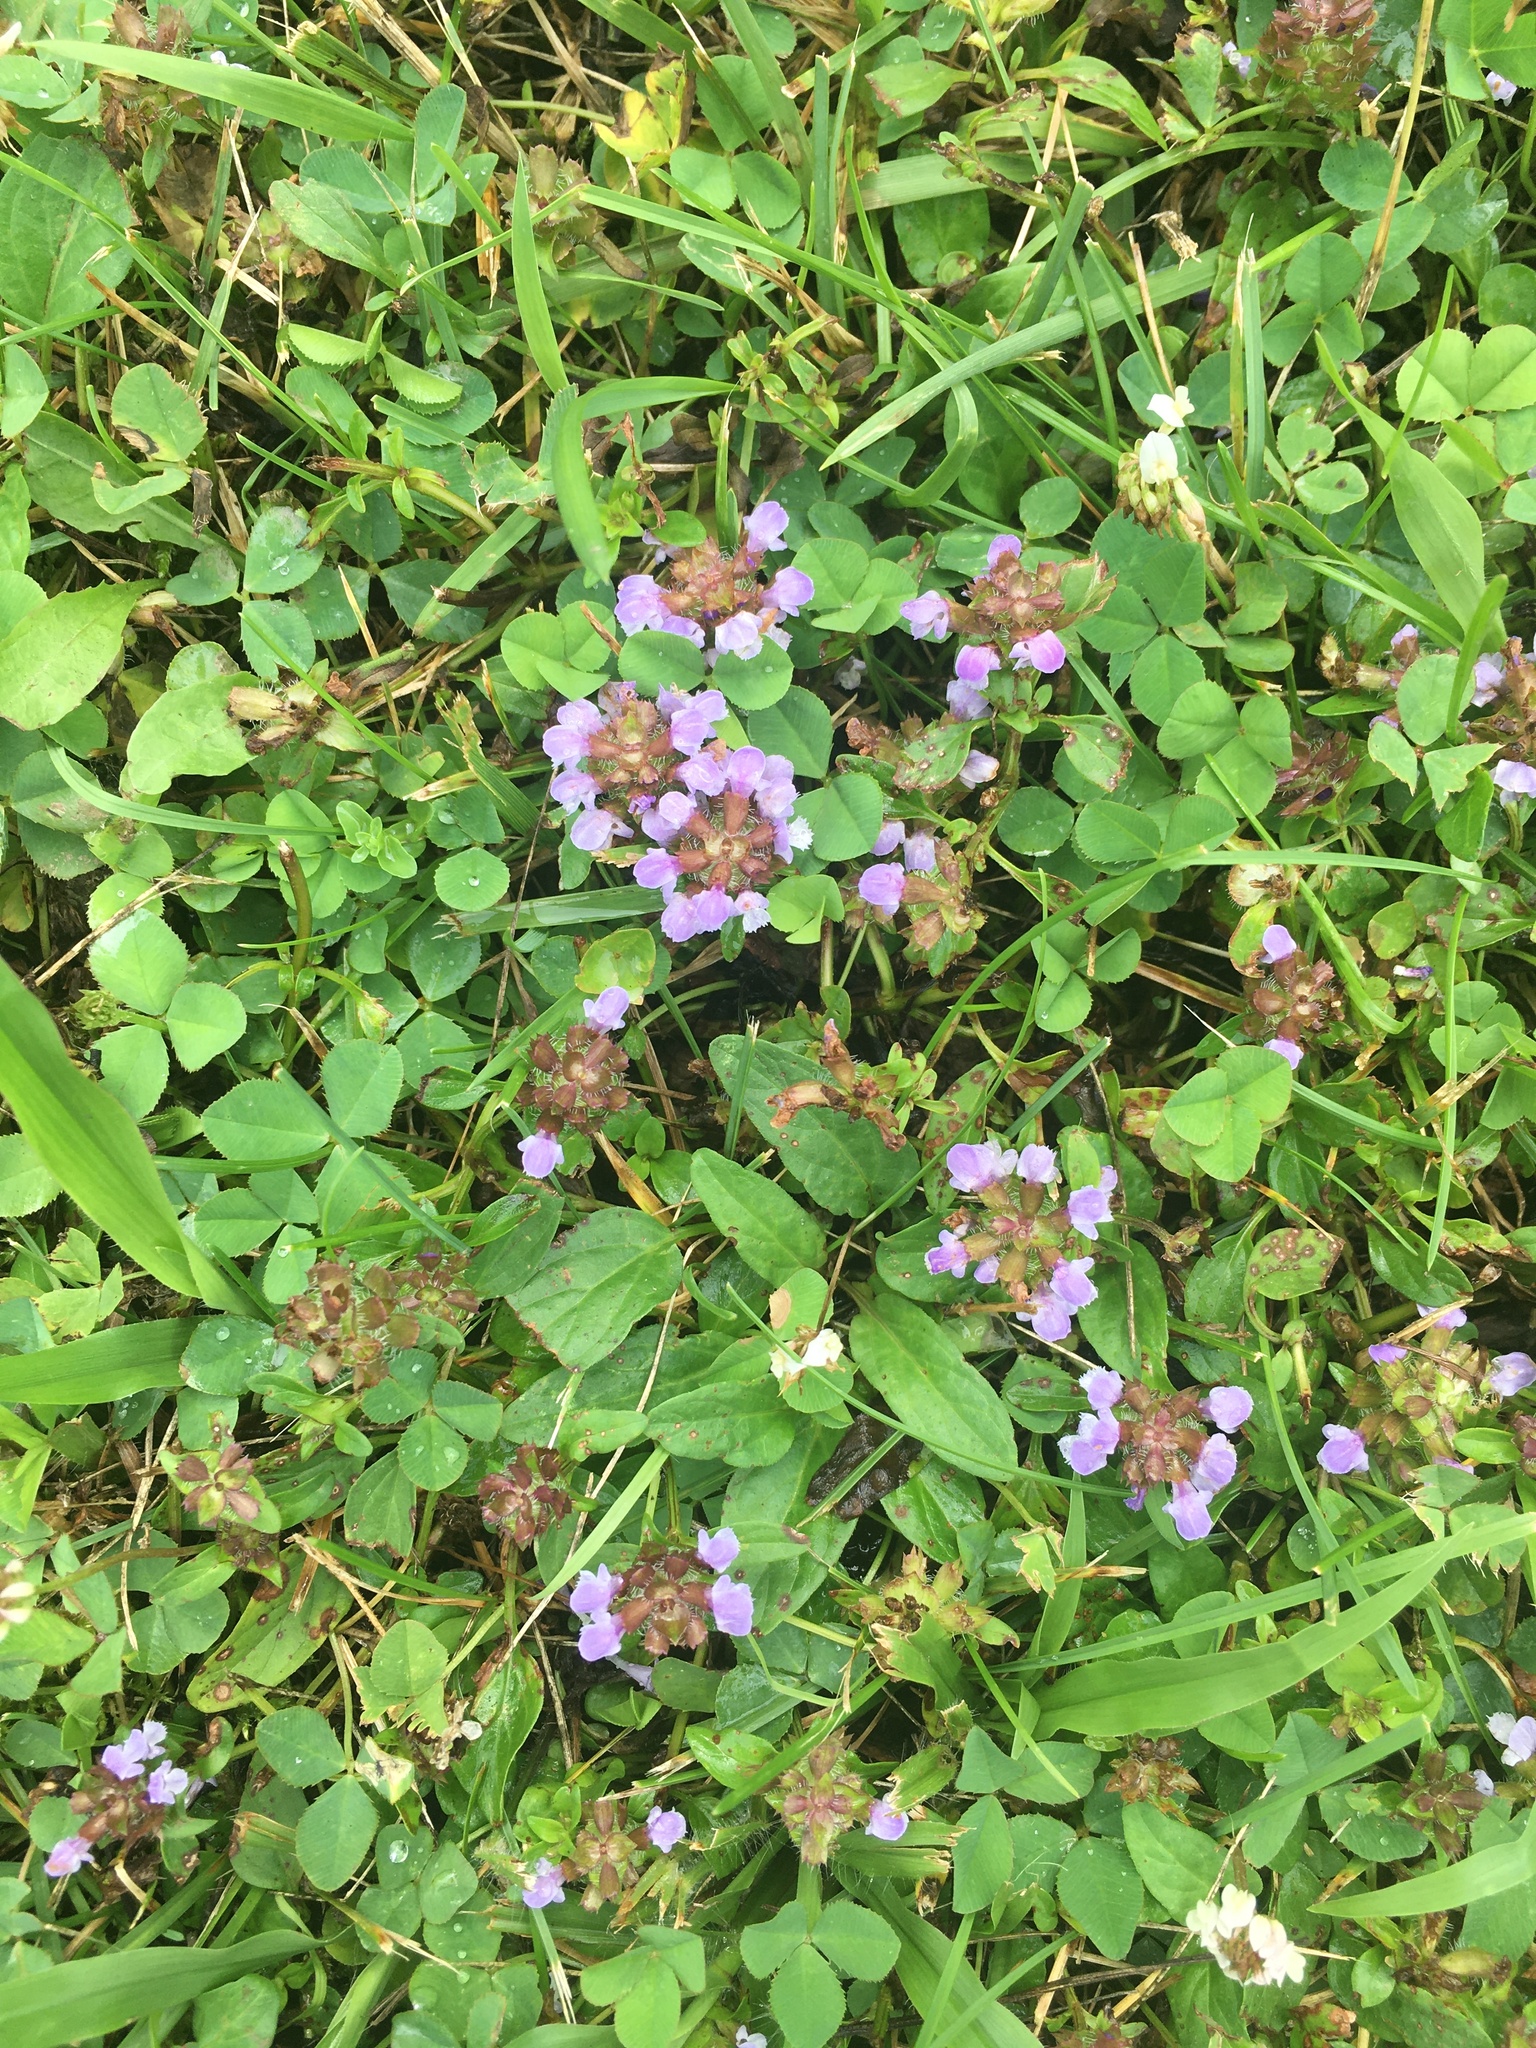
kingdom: Plantae
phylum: Tracheophyta
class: Magnoliopsida
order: Lamiales
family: Lamiaceae
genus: Prunella
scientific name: Prunella vulgaris
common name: Heal-all
